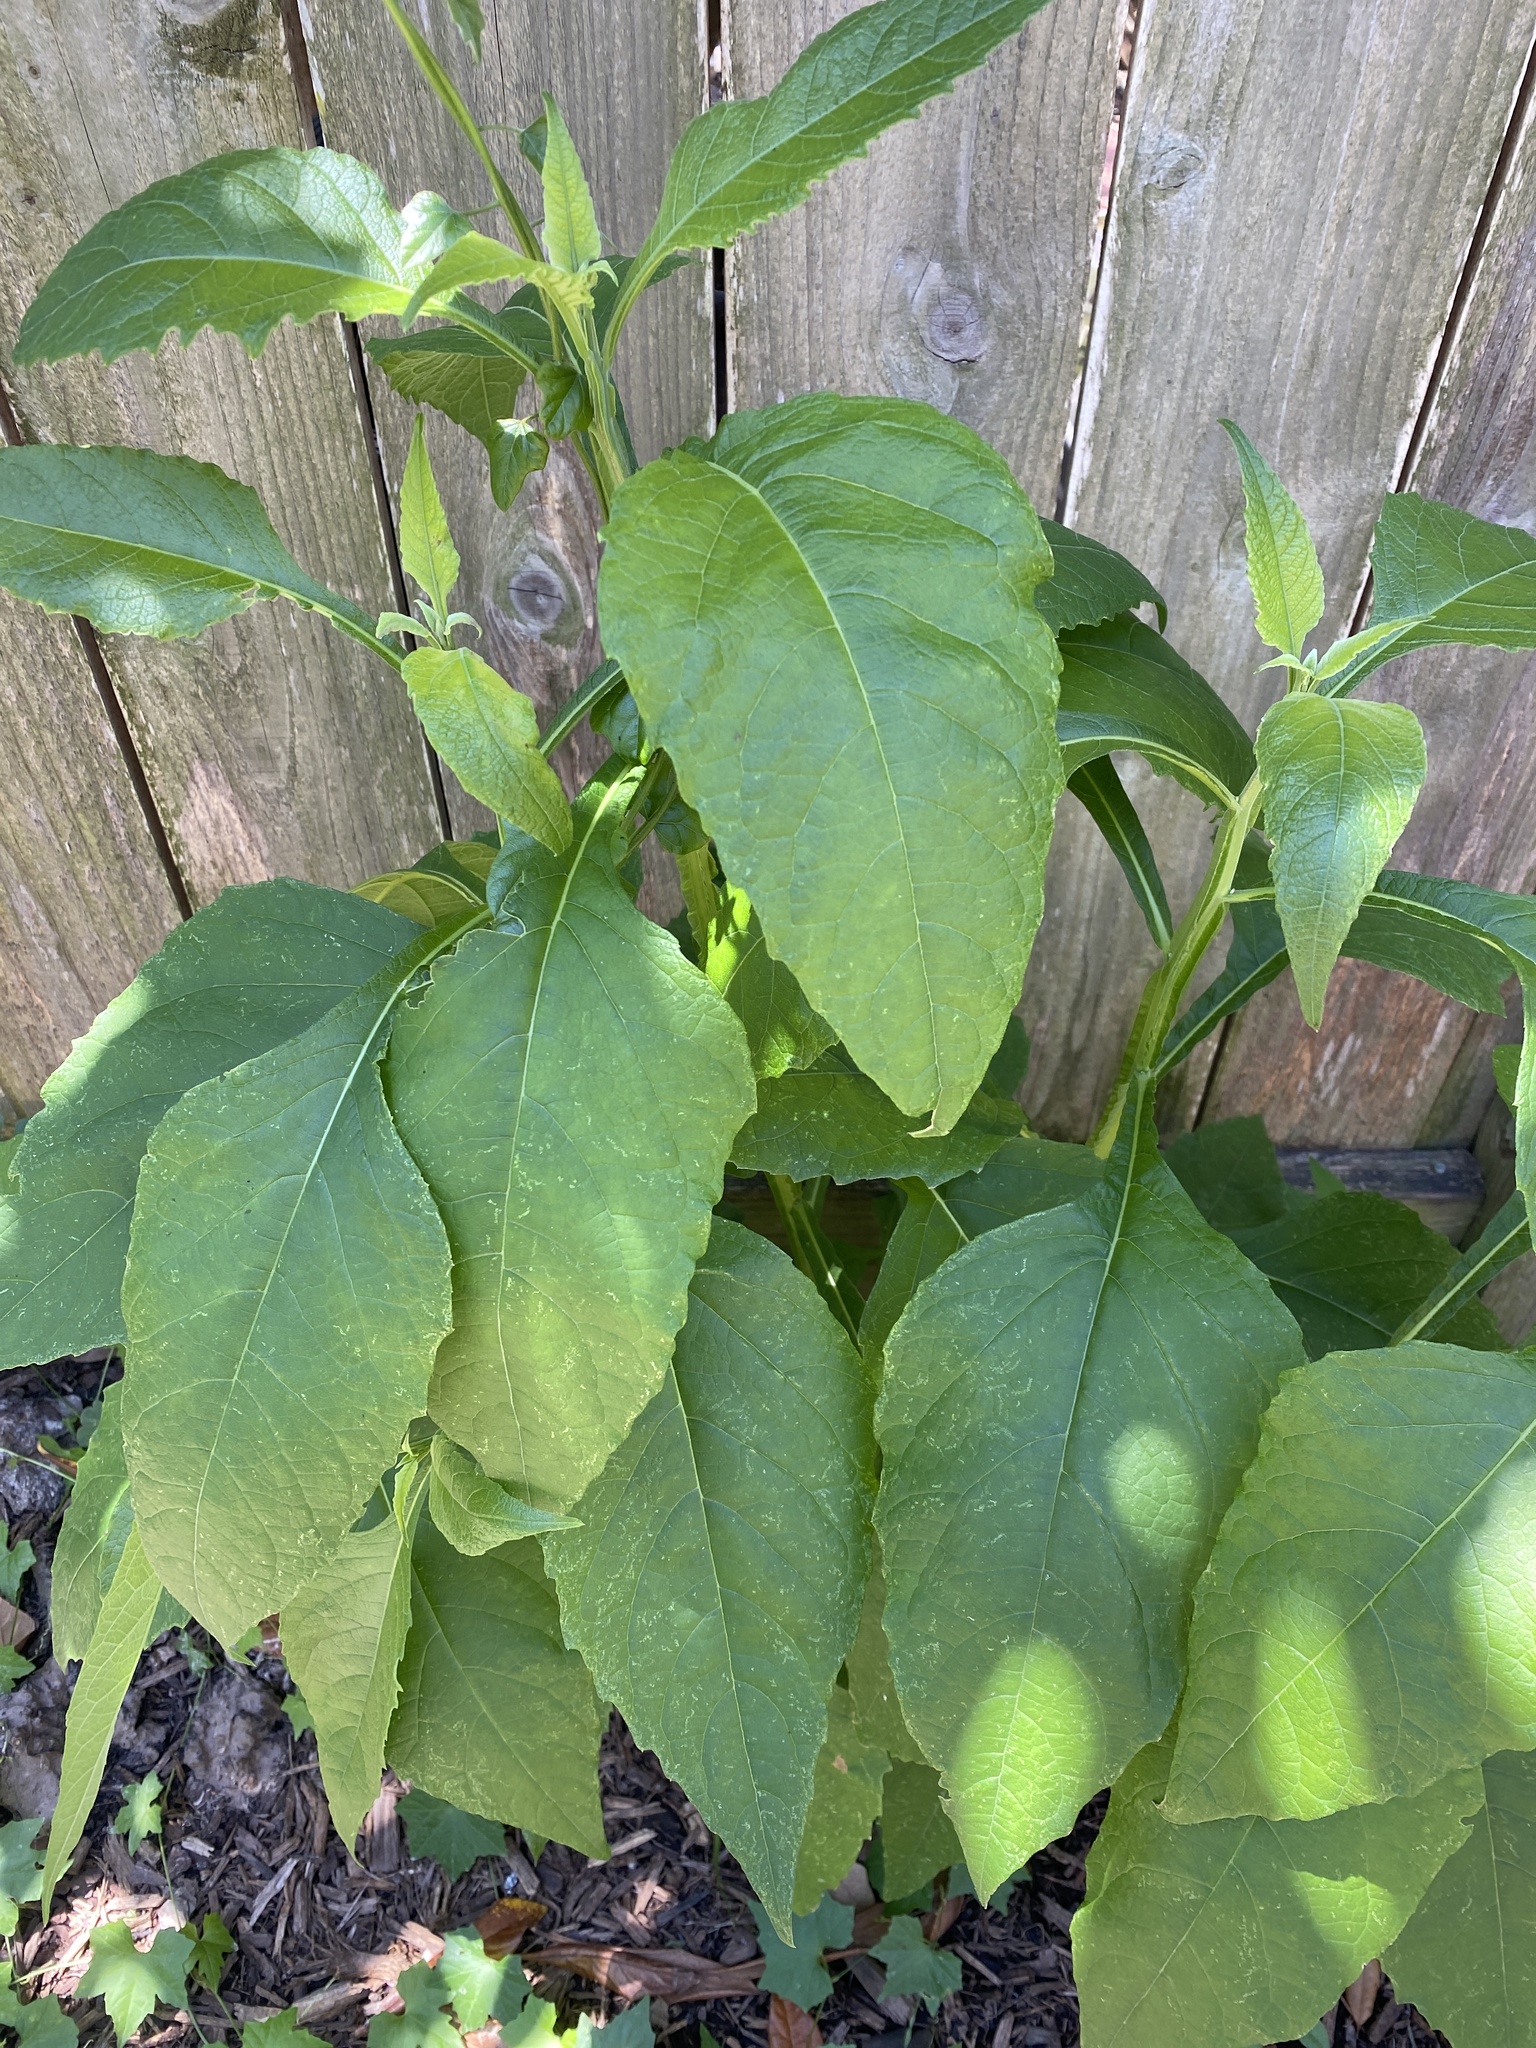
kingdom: Plantae
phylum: Tracheophyta
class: Magnoliopsida
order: Asterales
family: Asteraceae
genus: Verbesina
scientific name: Verbesina virginica
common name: Frostweed
